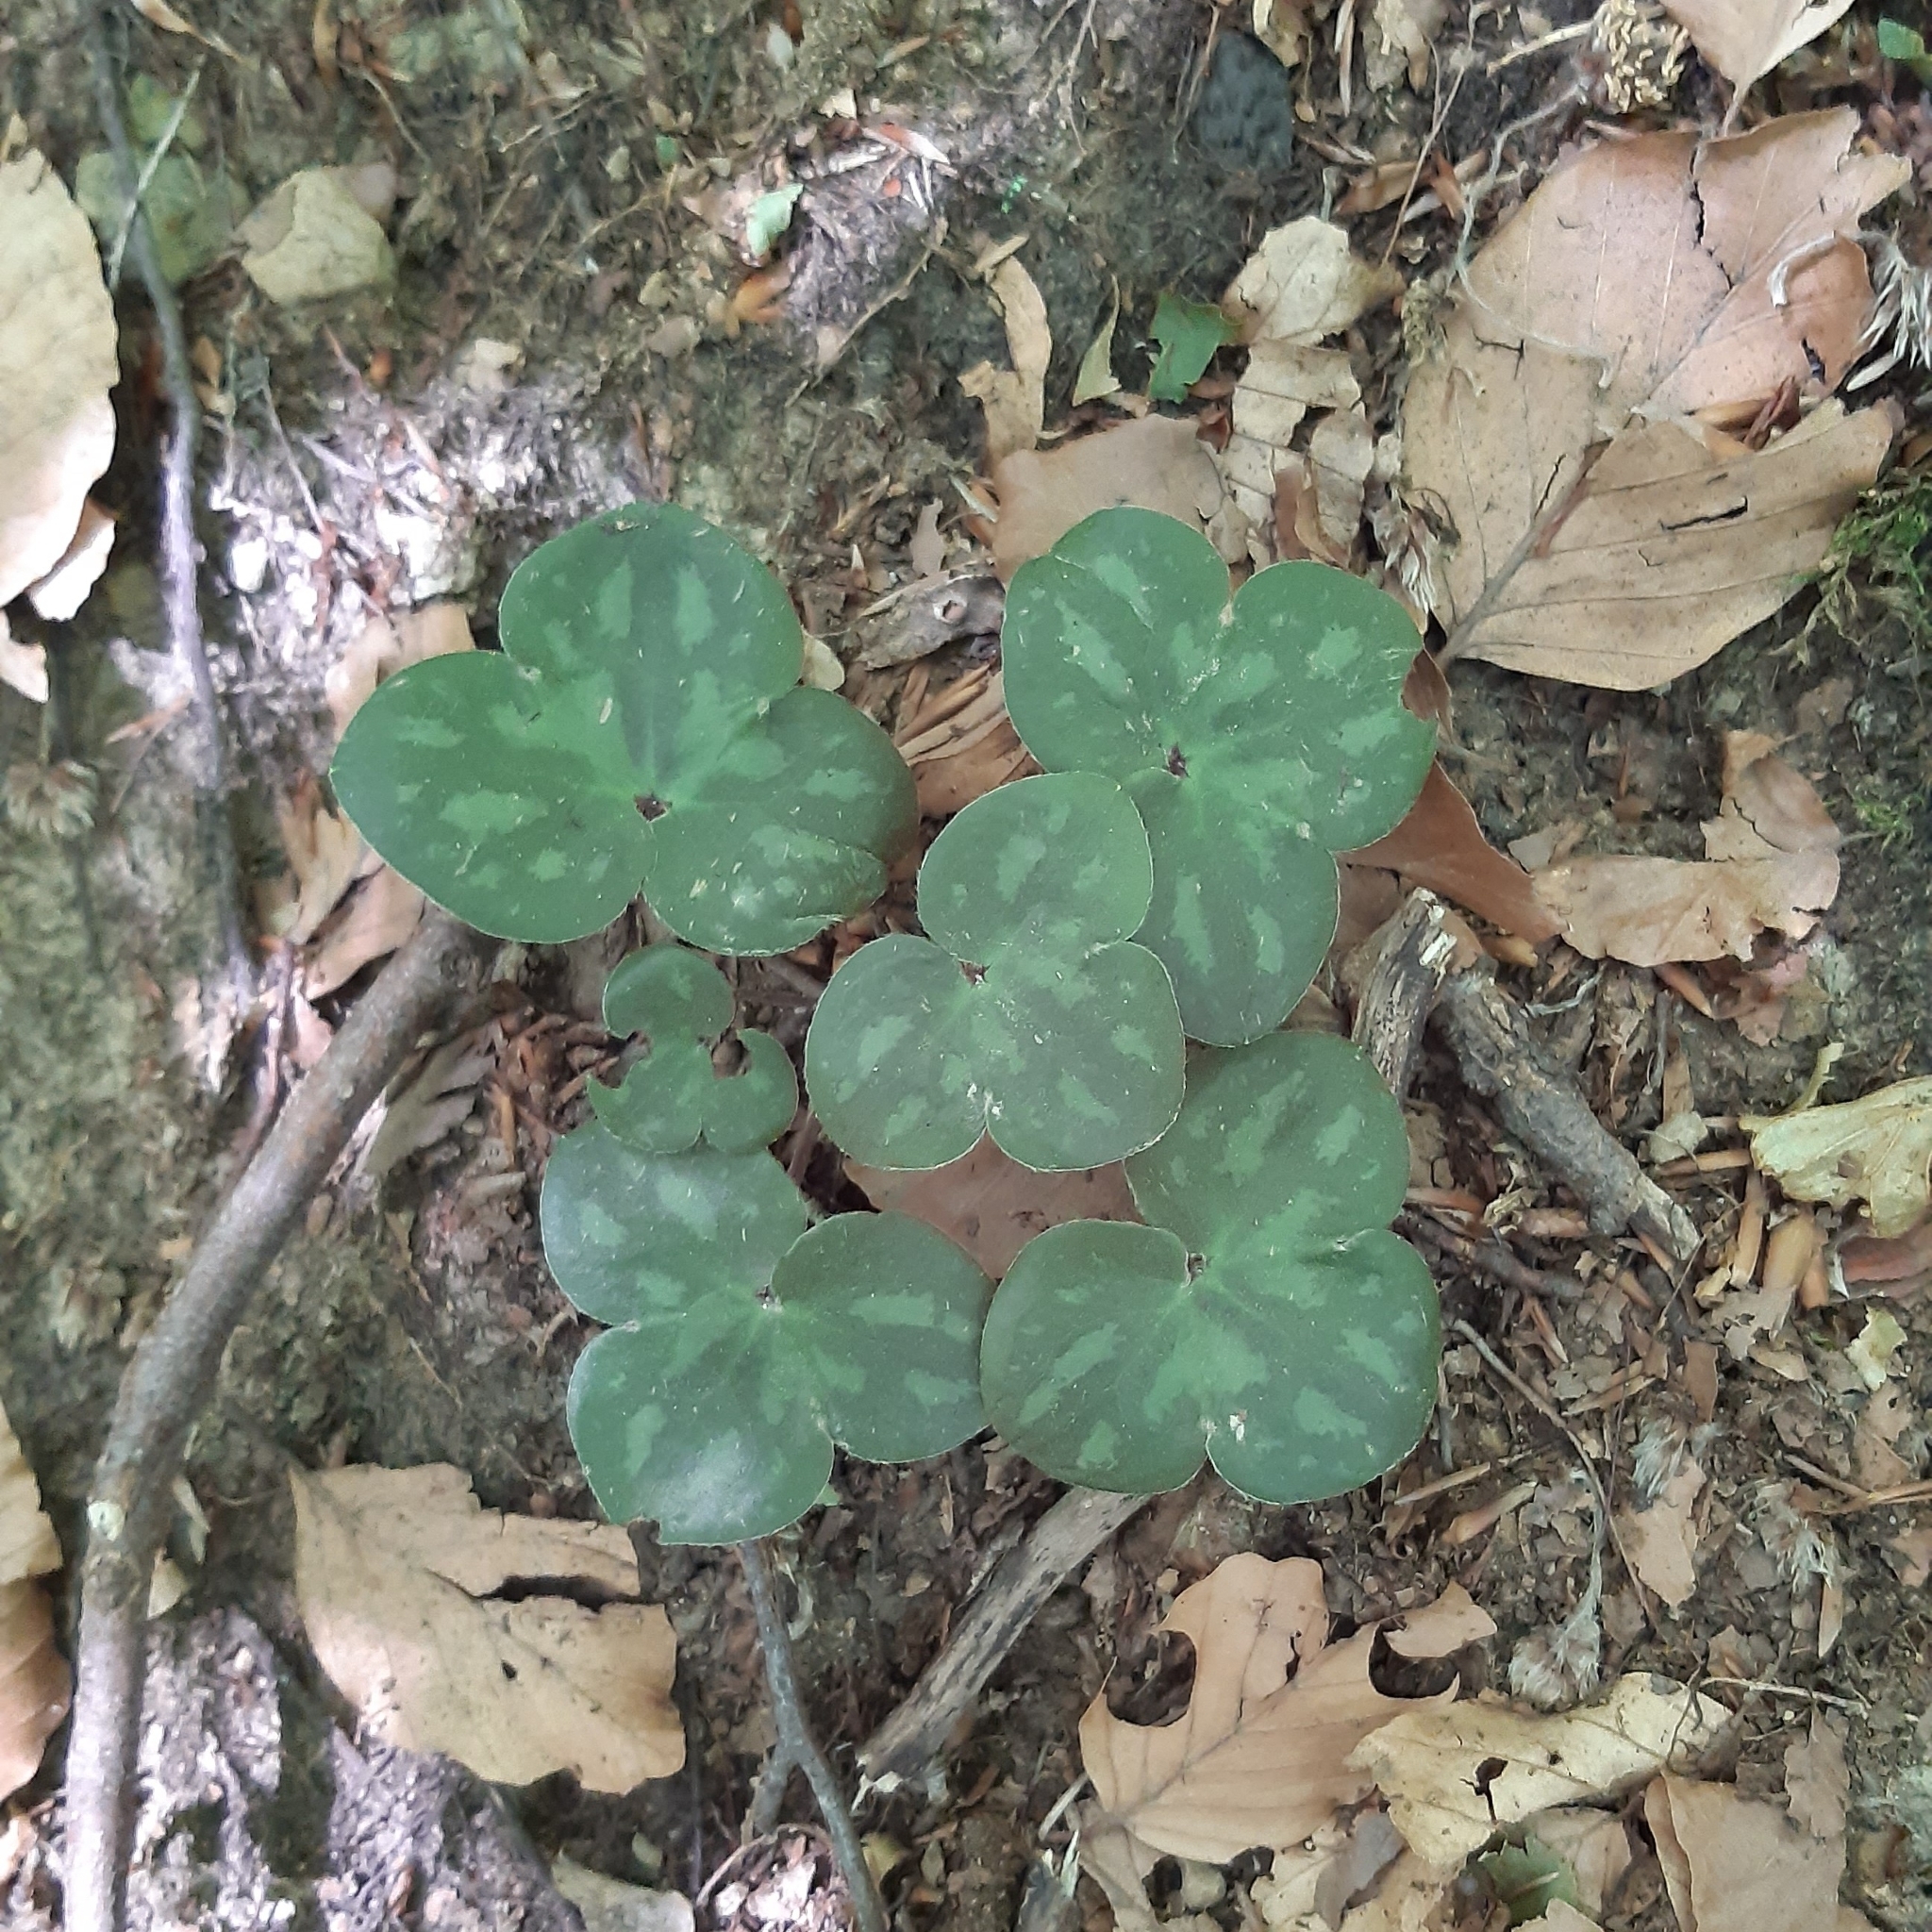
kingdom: Plantae
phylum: Tracheophyta
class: Magnoliopsida
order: Ranunculales
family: Ranunculaceae
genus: Hepatica
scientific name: Hepatica nobilis
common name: Liverleaf
